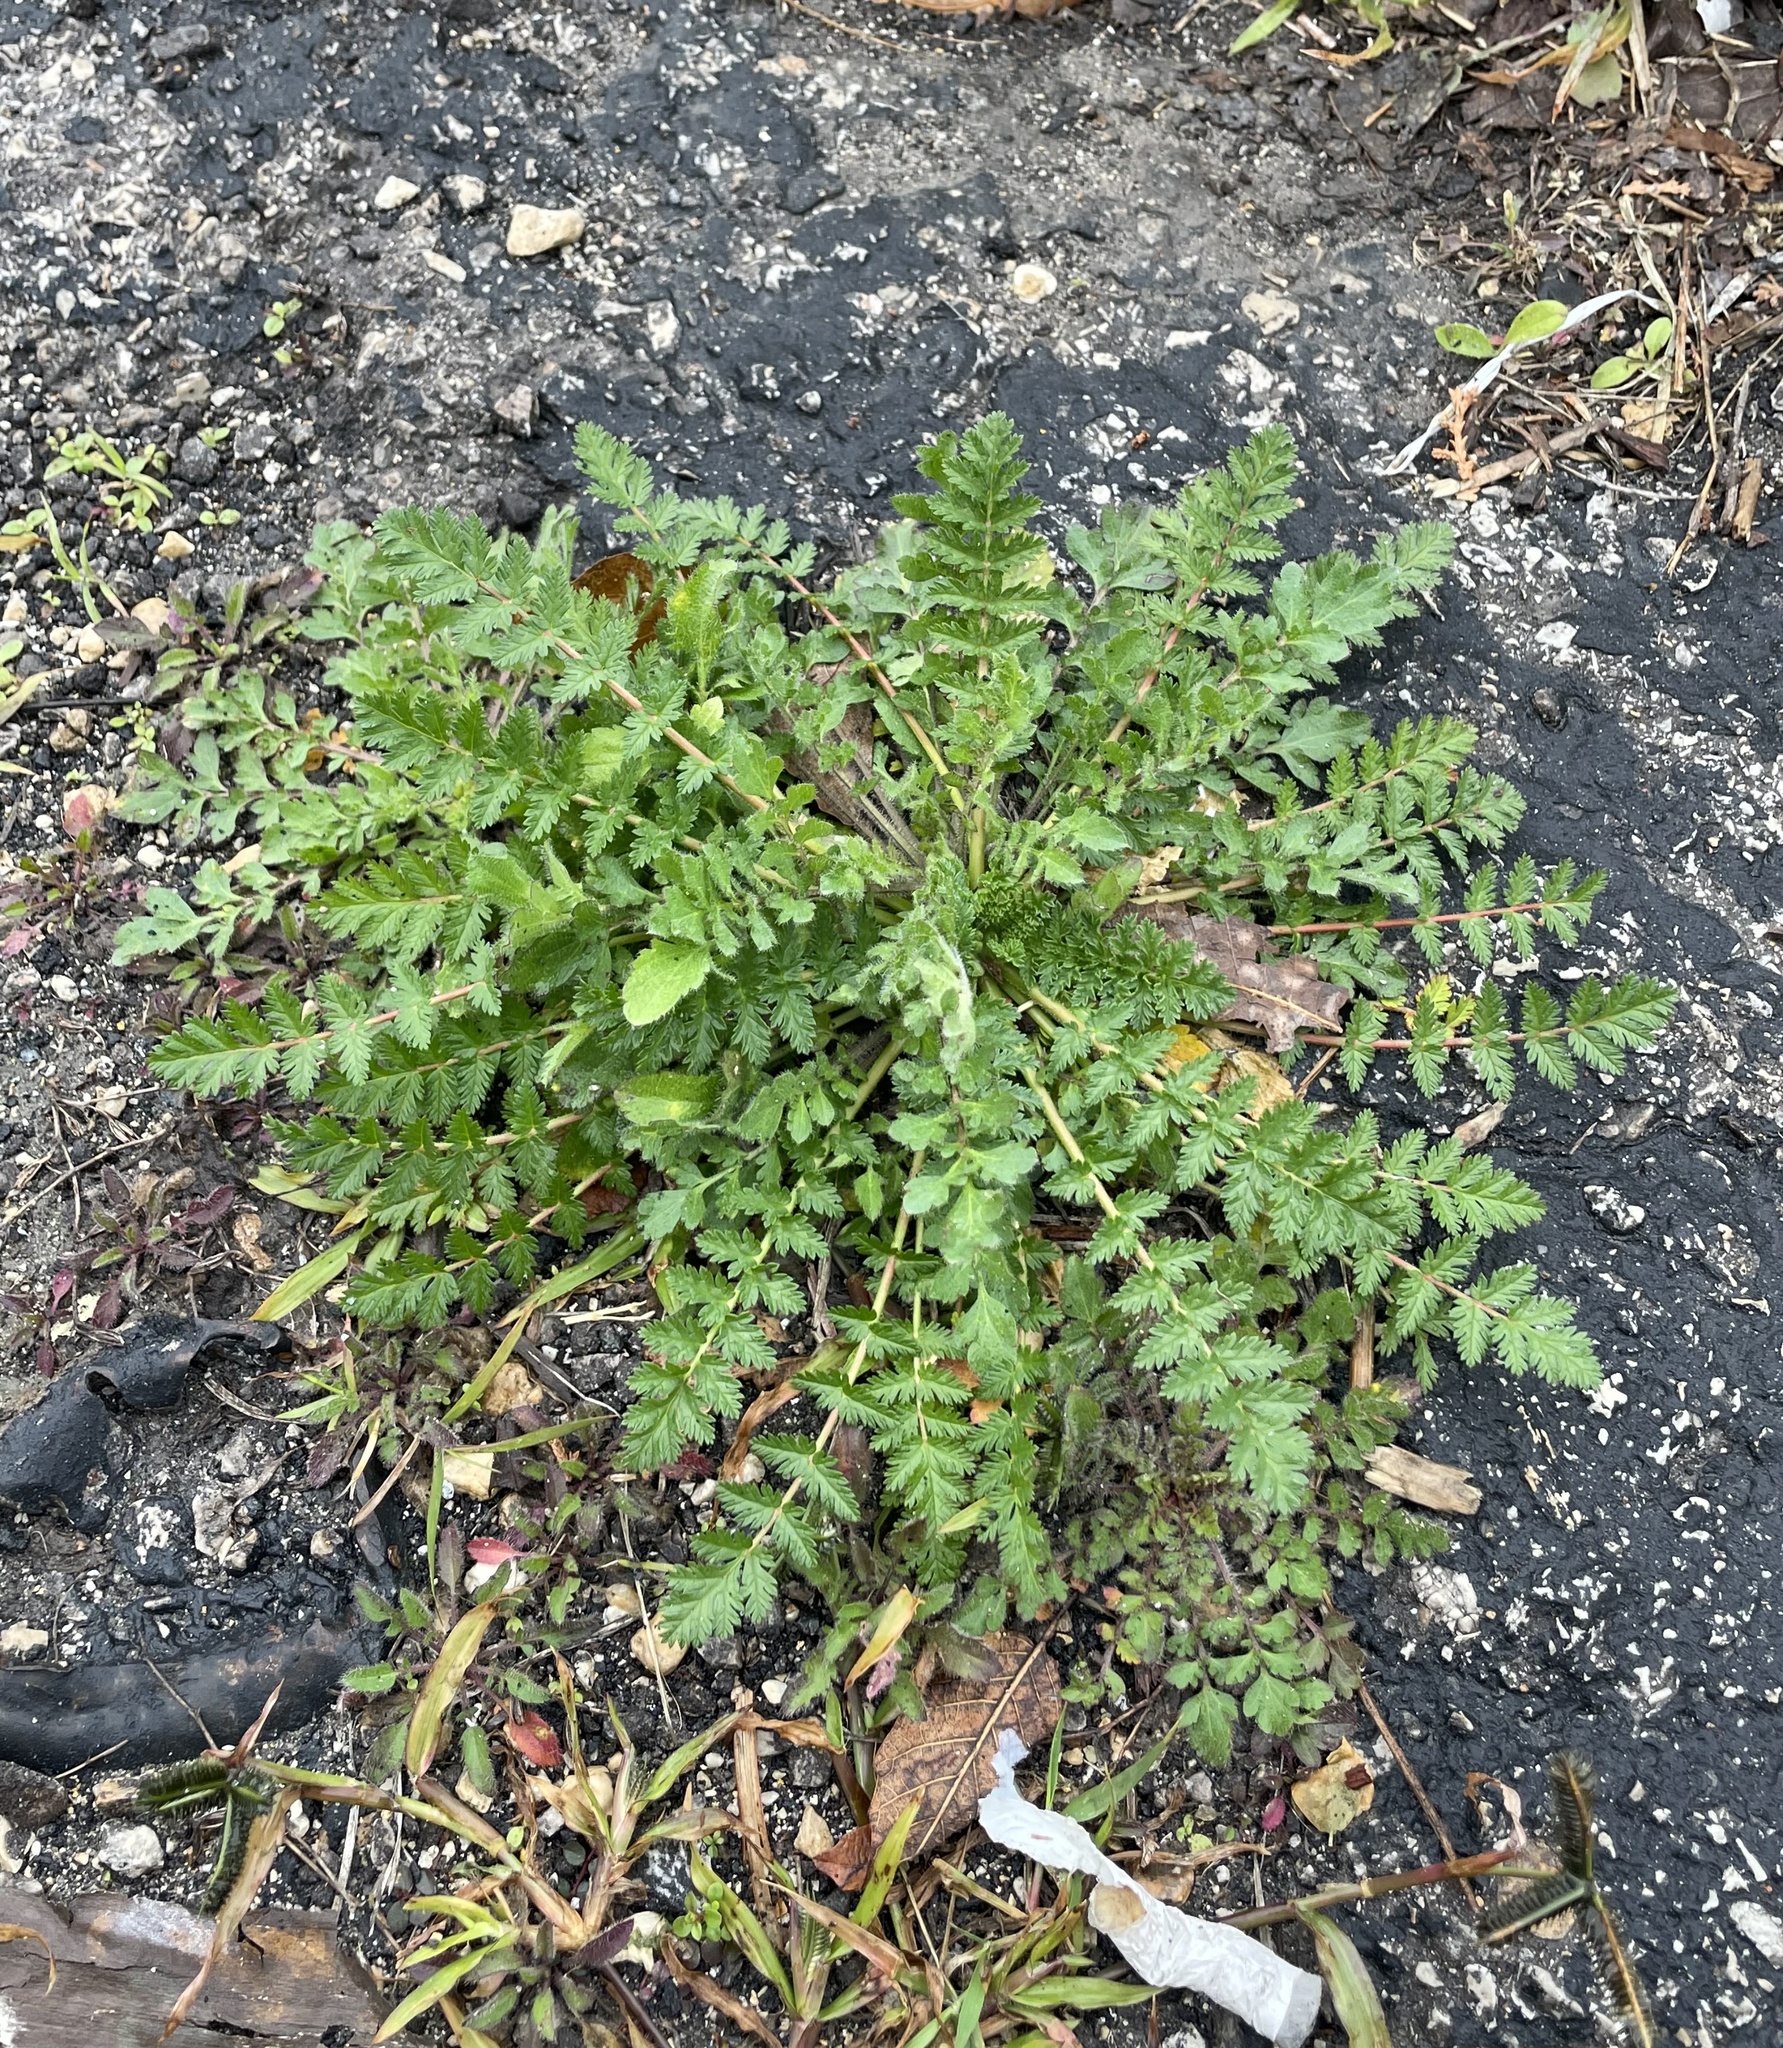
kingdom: Plantae
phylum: Tracheophyta
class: Magnoliopsida
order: Geraniales
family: Geraniaceae
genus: Erodium
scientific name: Erodium cicutarium
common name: Common stork's-bill
